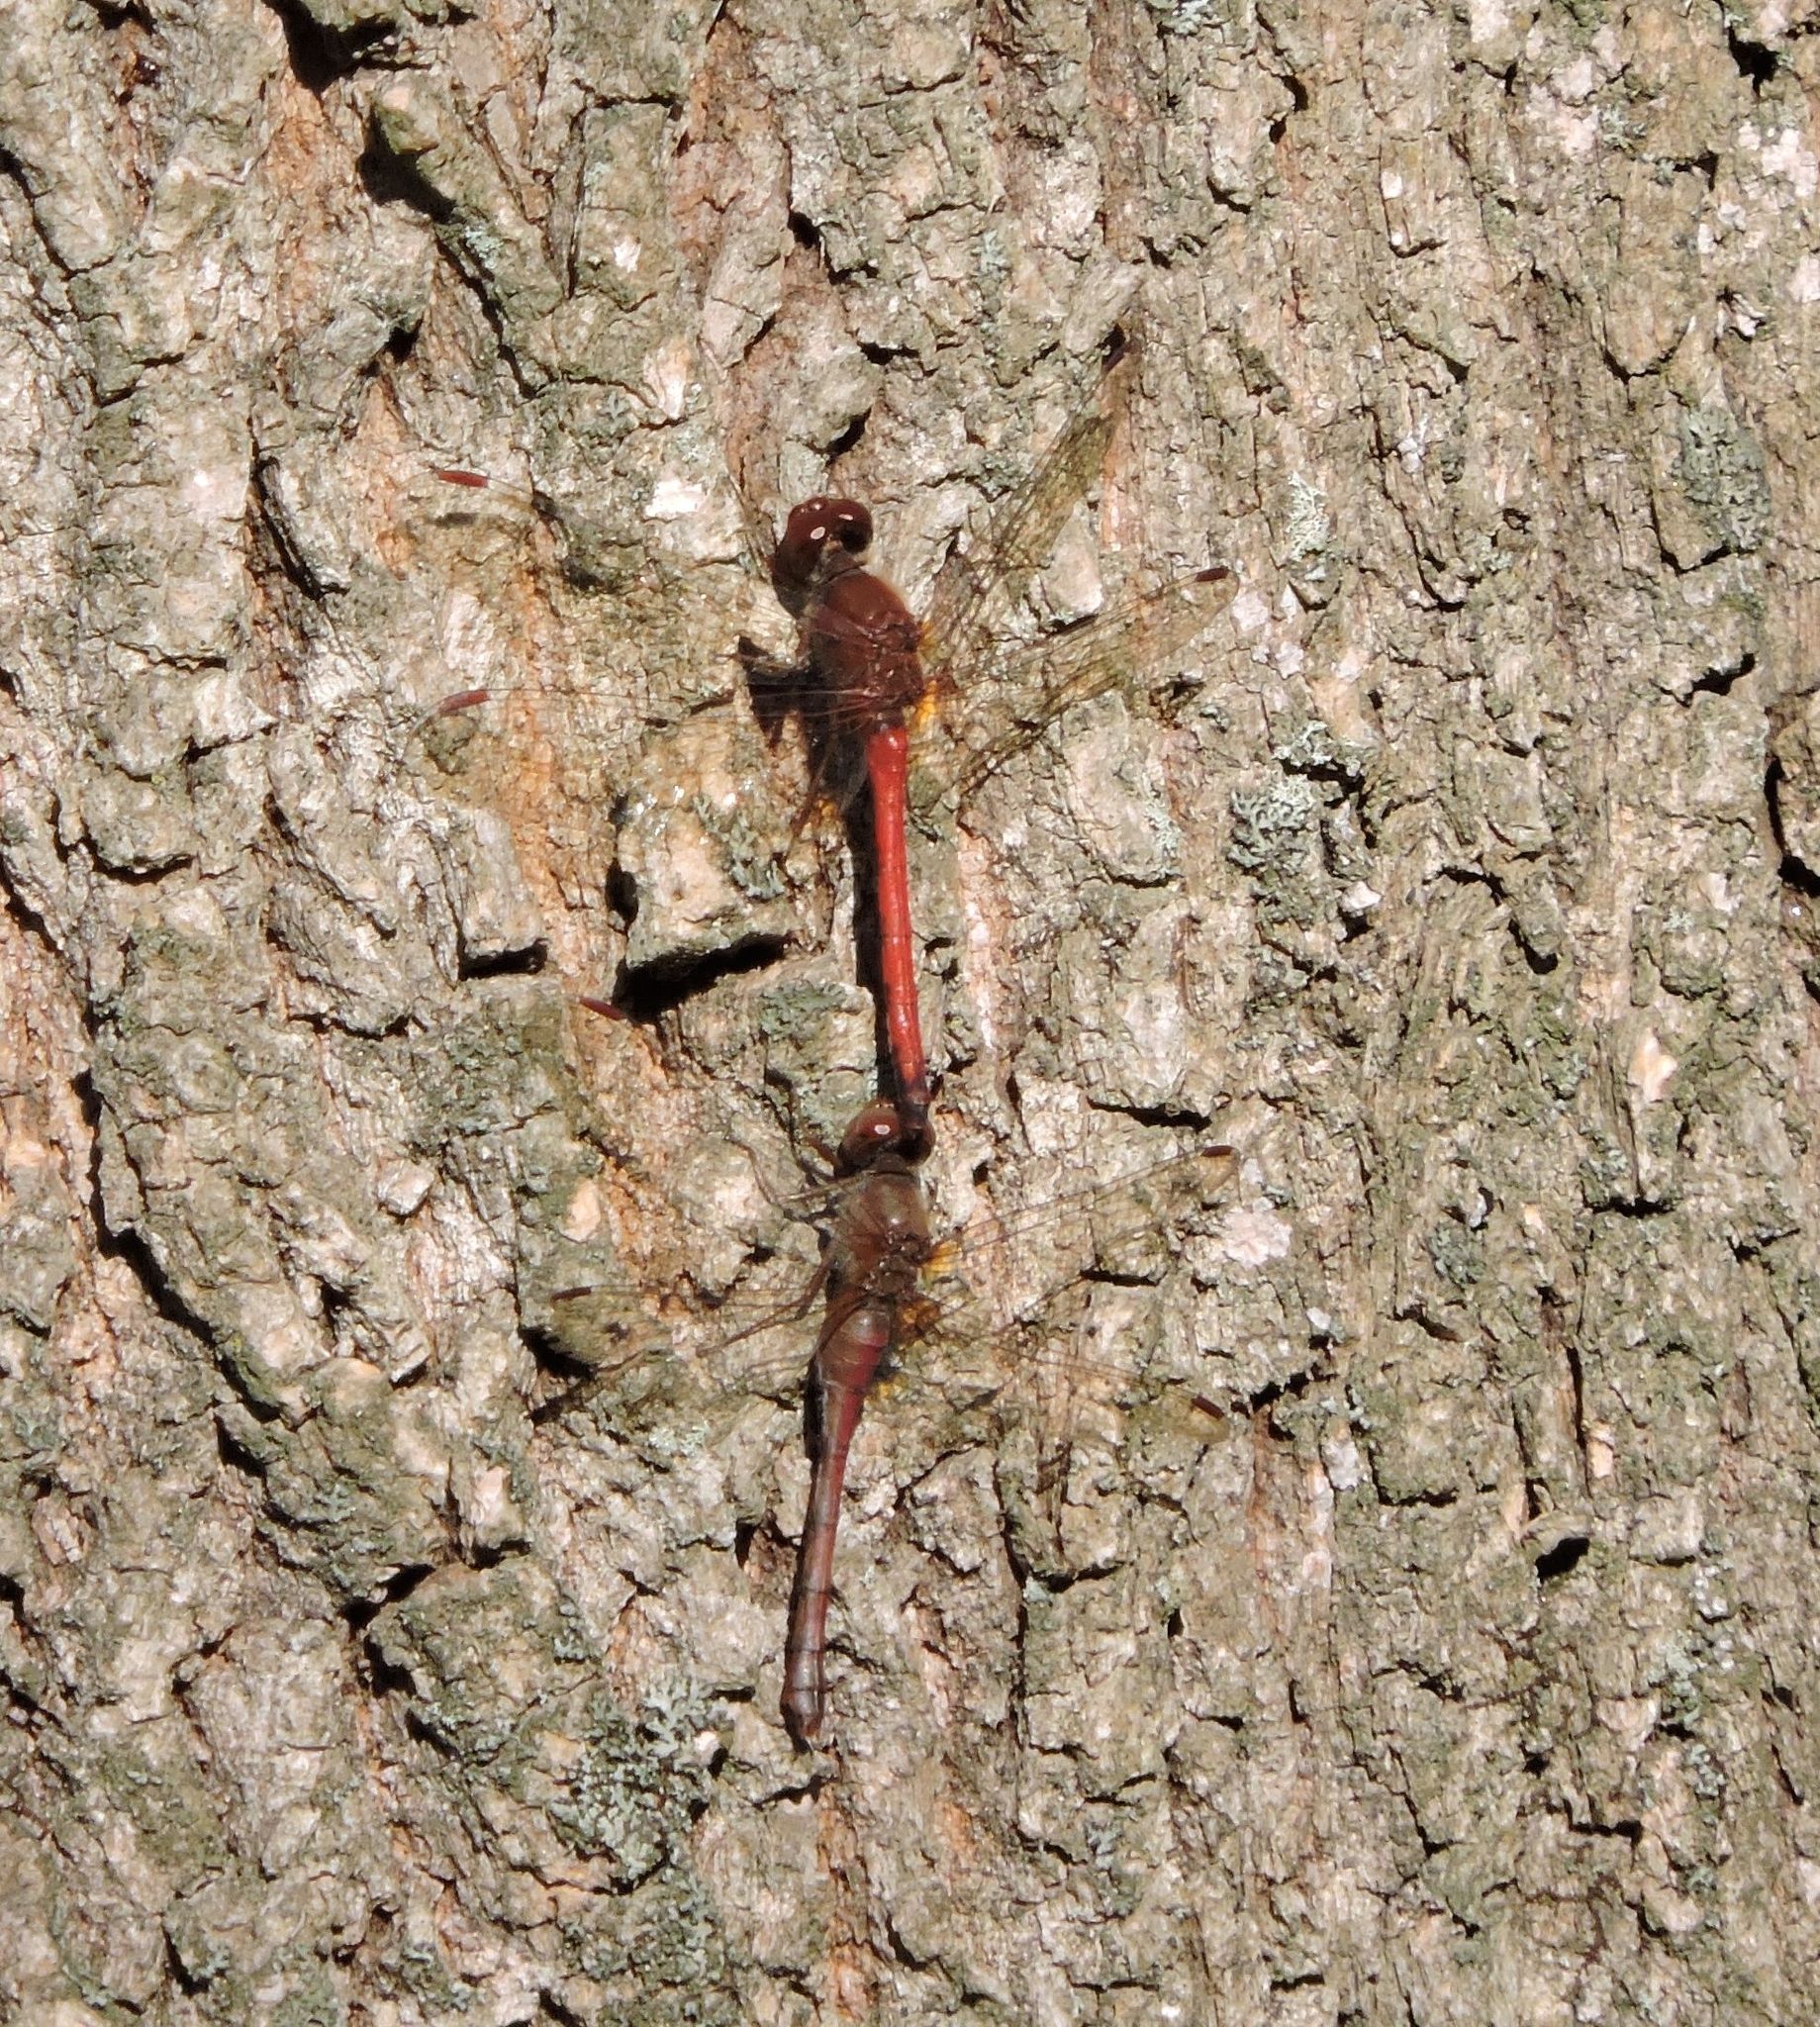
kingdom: Animalia
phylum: Arthropoda
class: Insecta
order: Odonata
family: Libellulidae
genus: Sympetrum
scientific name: Sympetrum vicinum
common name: Autumn meadowhawk
